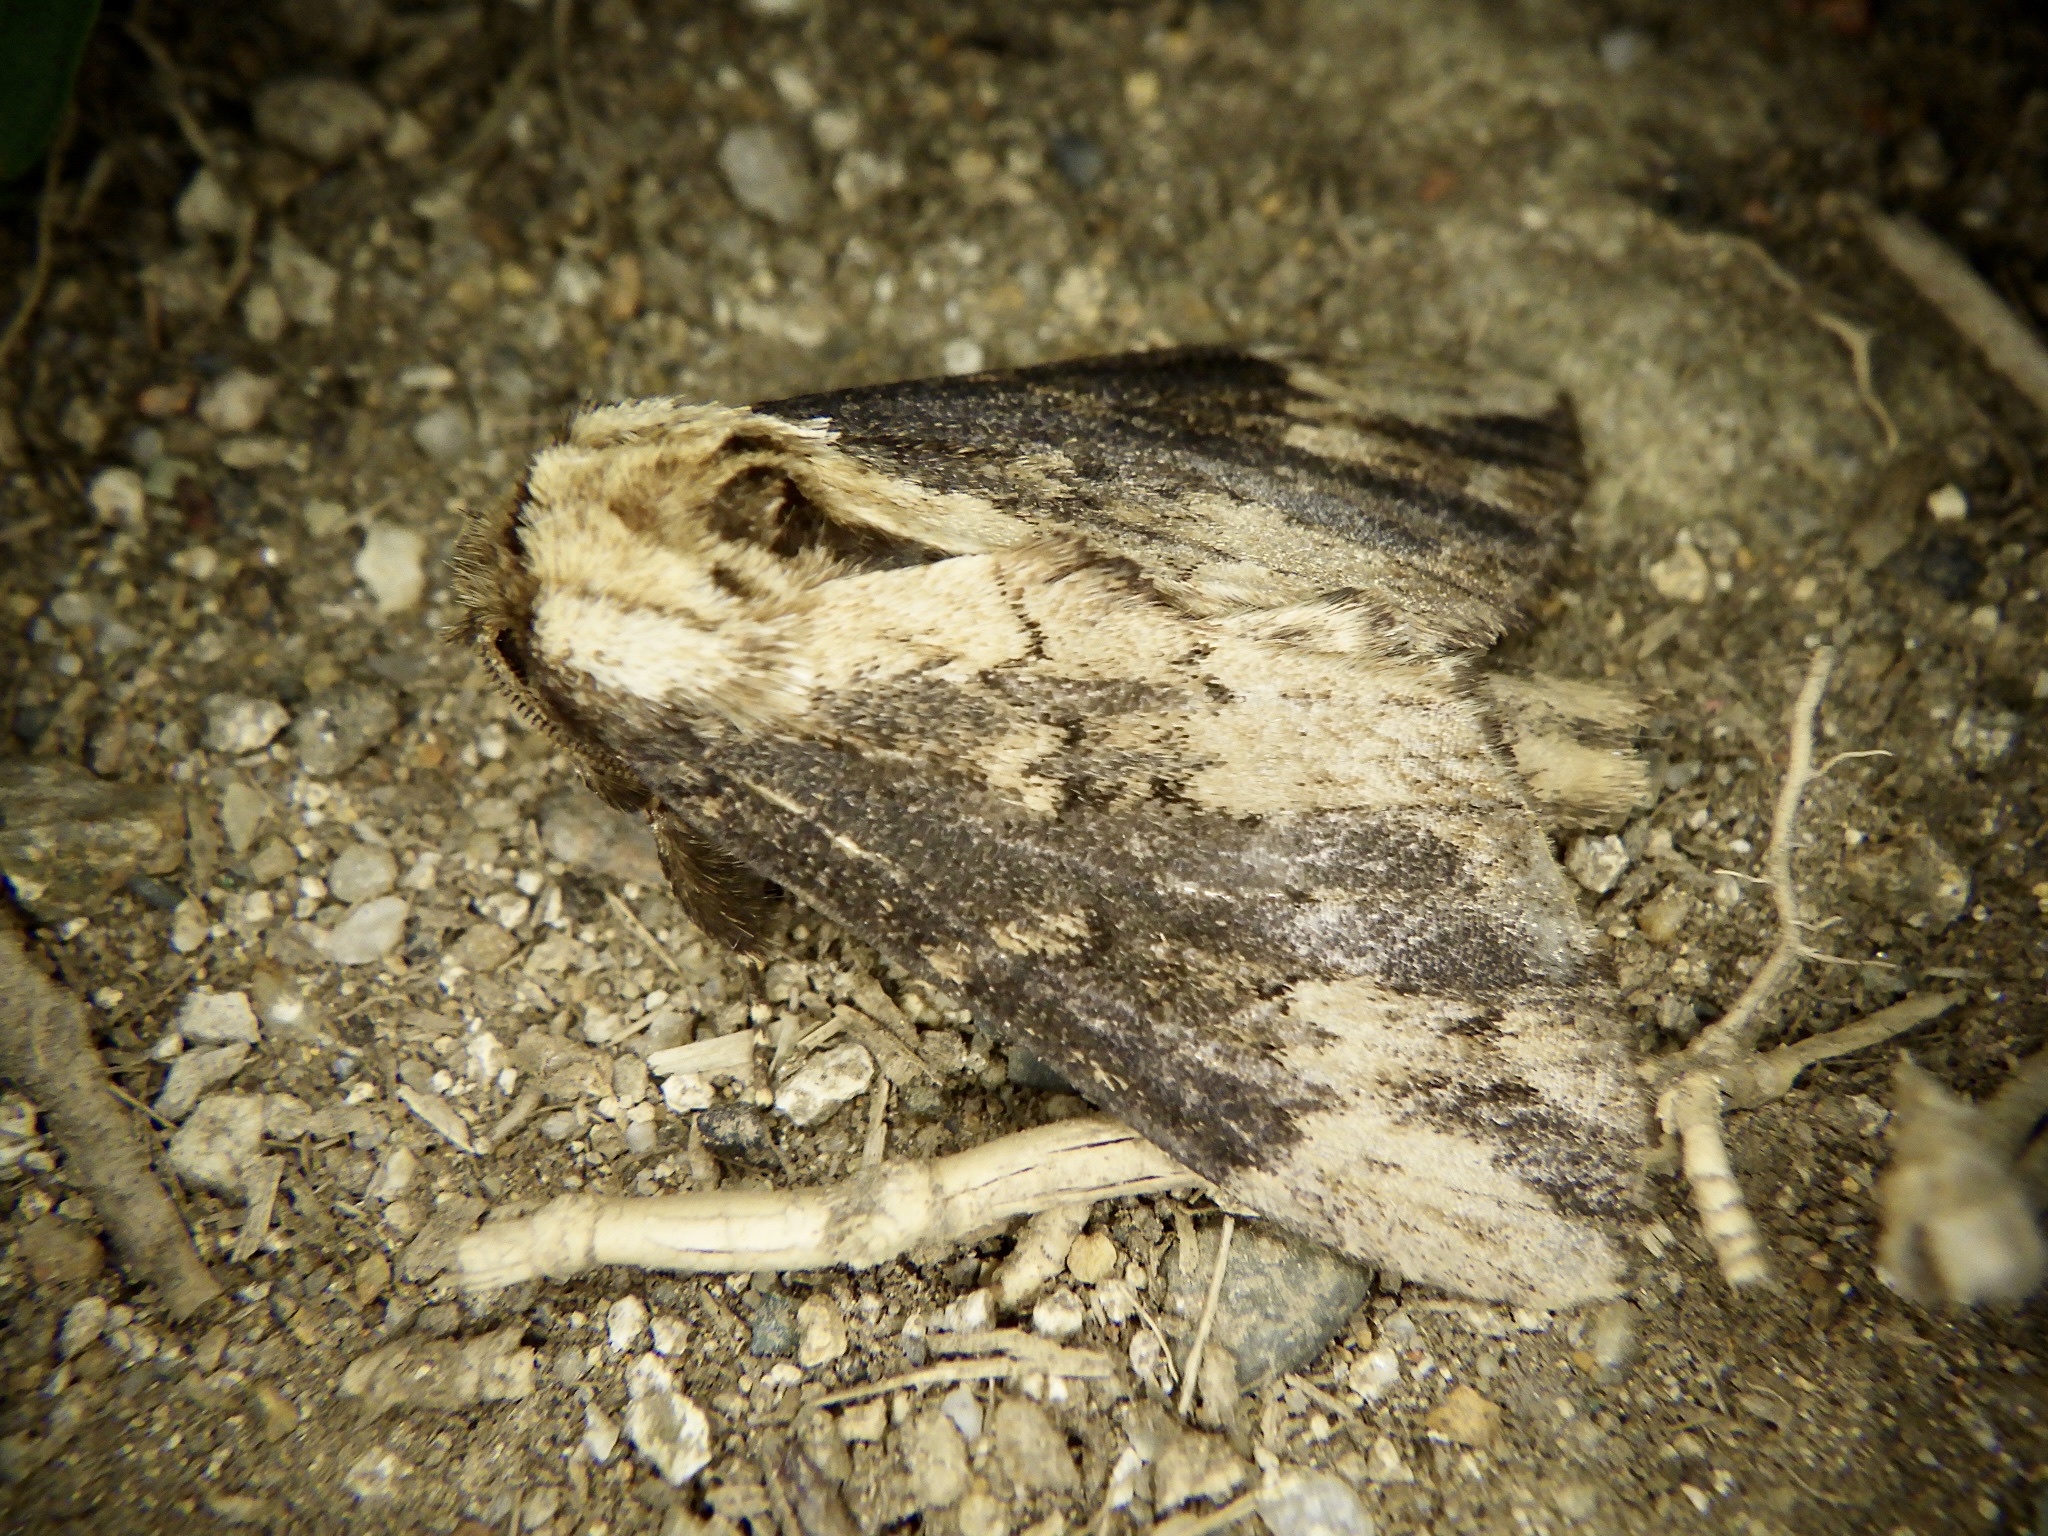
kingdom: Animalia
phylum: Arthropoda
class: Insecta
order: Lepidoptera
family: Notodontidae
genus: Hiradonta
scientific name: Hiradonta takaonis
